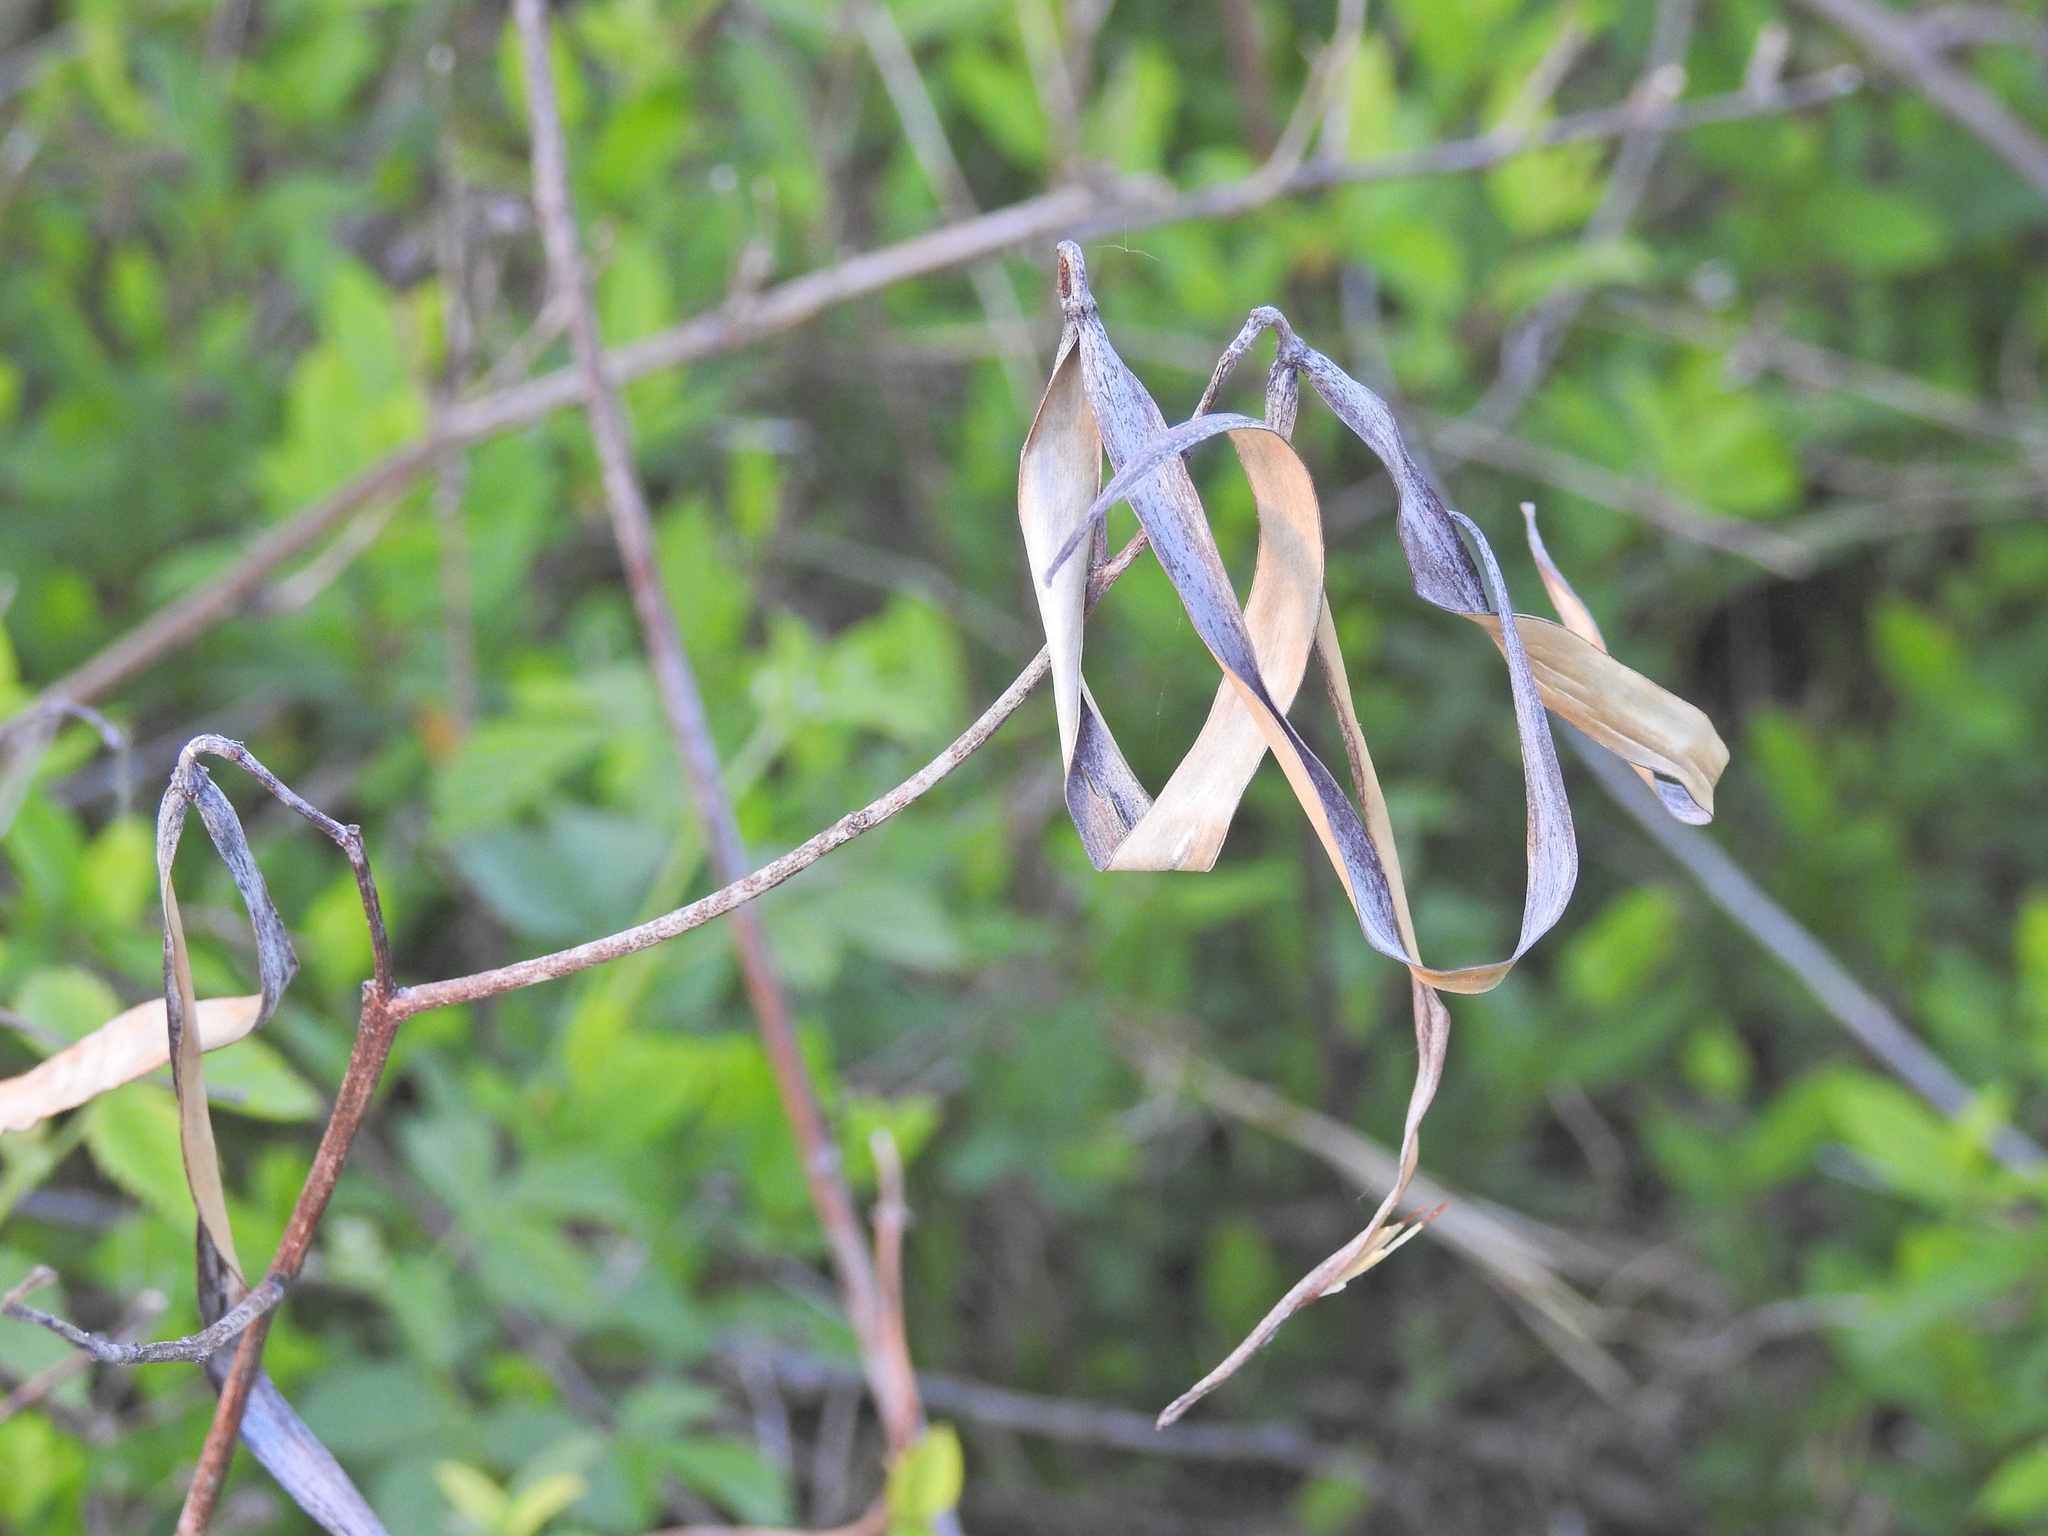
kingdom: Plantae
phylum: Tracheophyta
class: Magnoliopsida
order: Gentianales
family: Apocynaceae
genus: Apocynum
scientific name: Apocynum cannabinum
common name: Hemp dogbane
